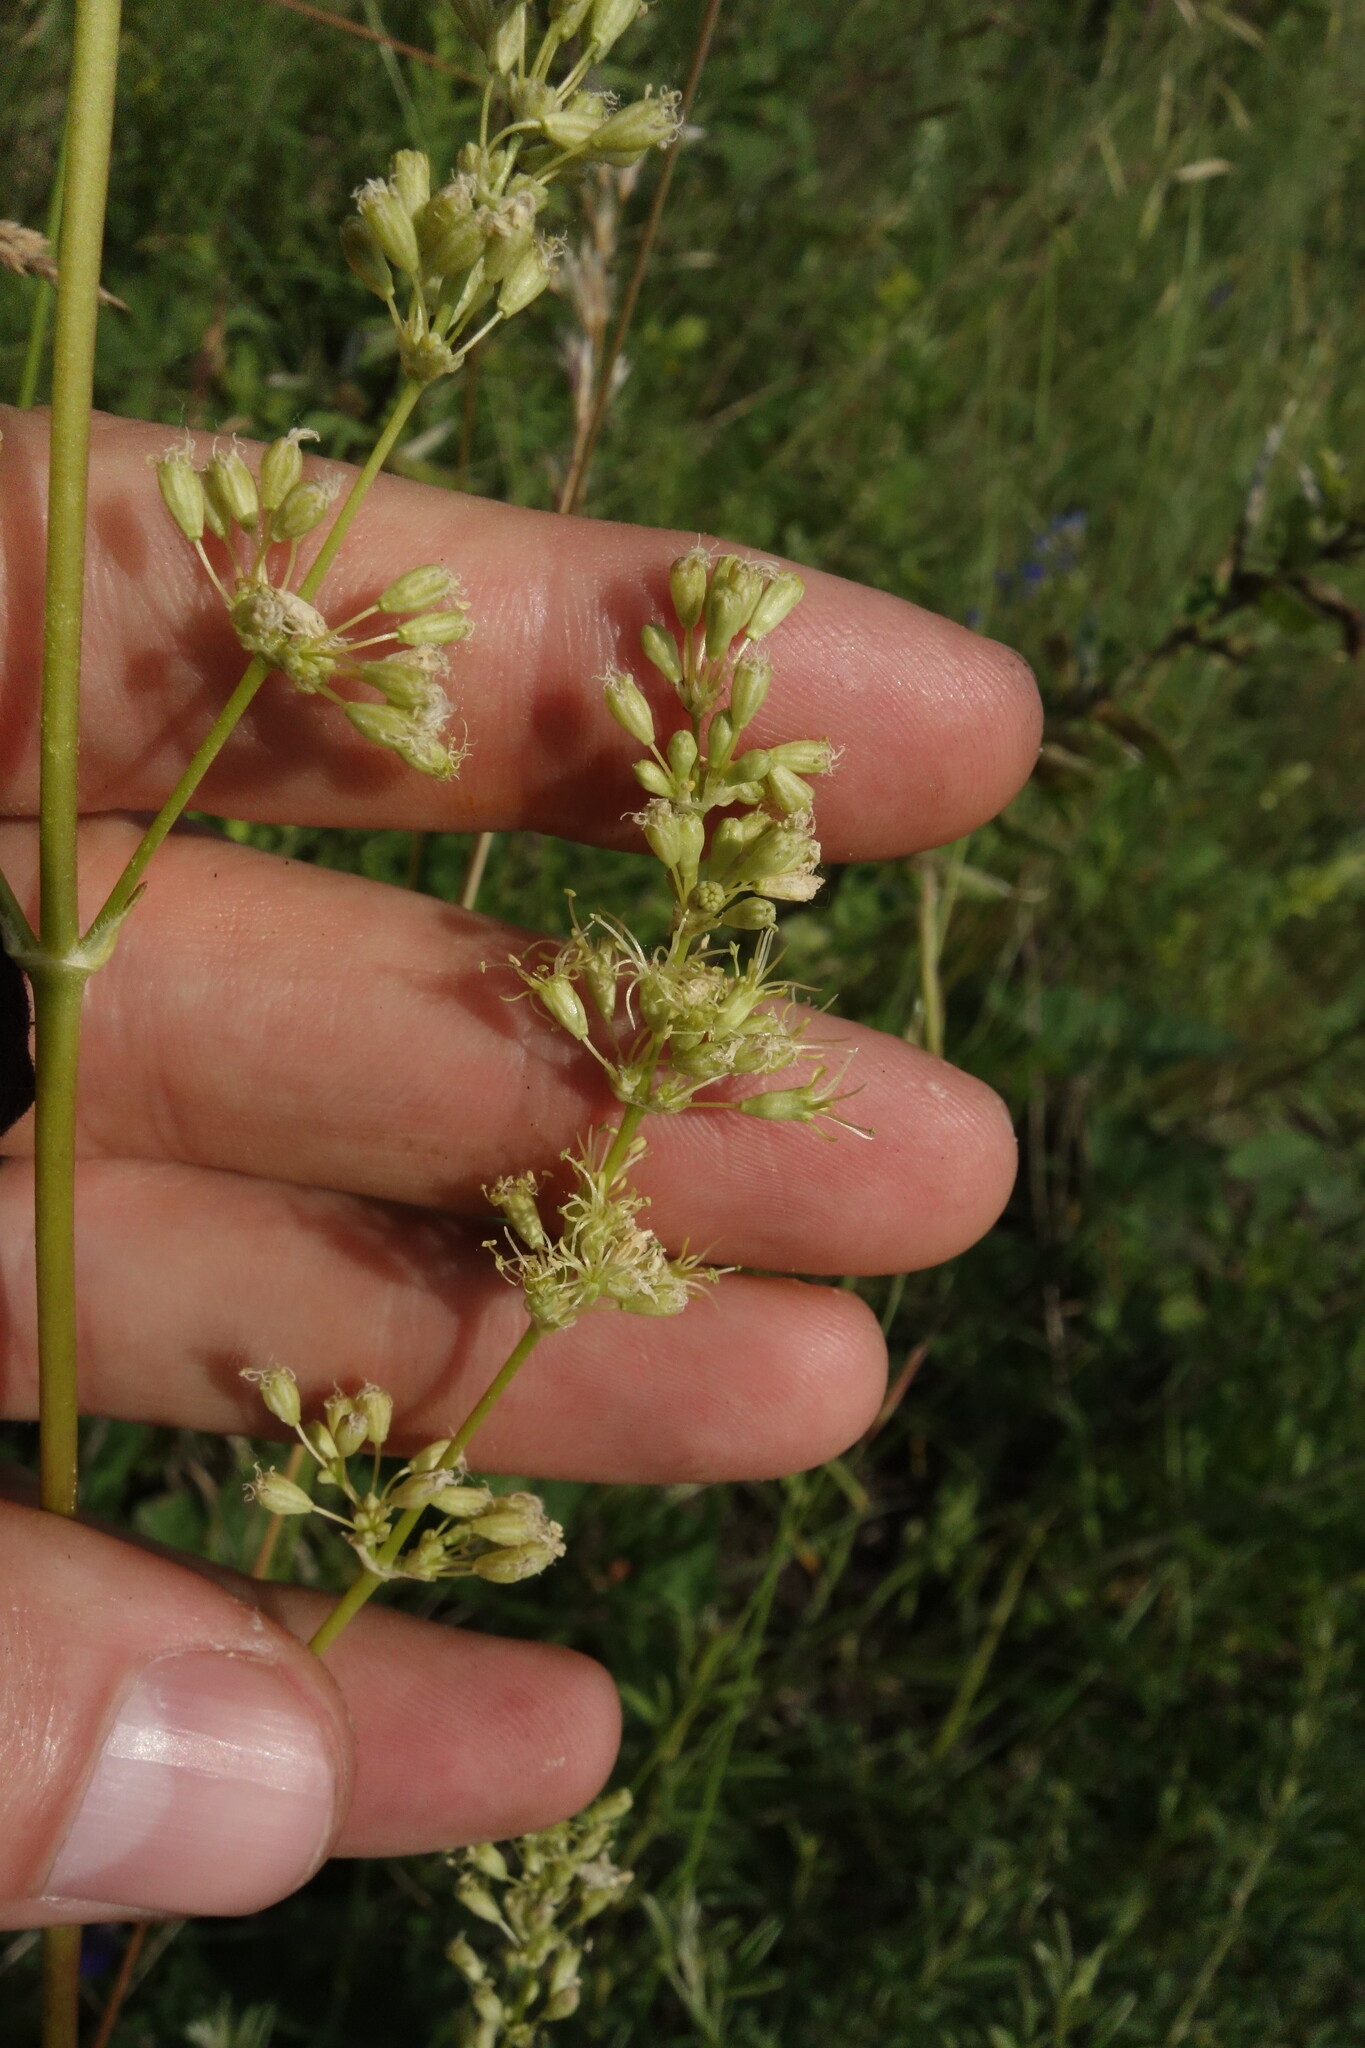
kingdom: Plantae
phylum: Tracheophyta
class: Magnoliopsida
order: Caryophyllales
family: Caryophyllaceae
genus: Silene
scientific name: Silene borysthenica
